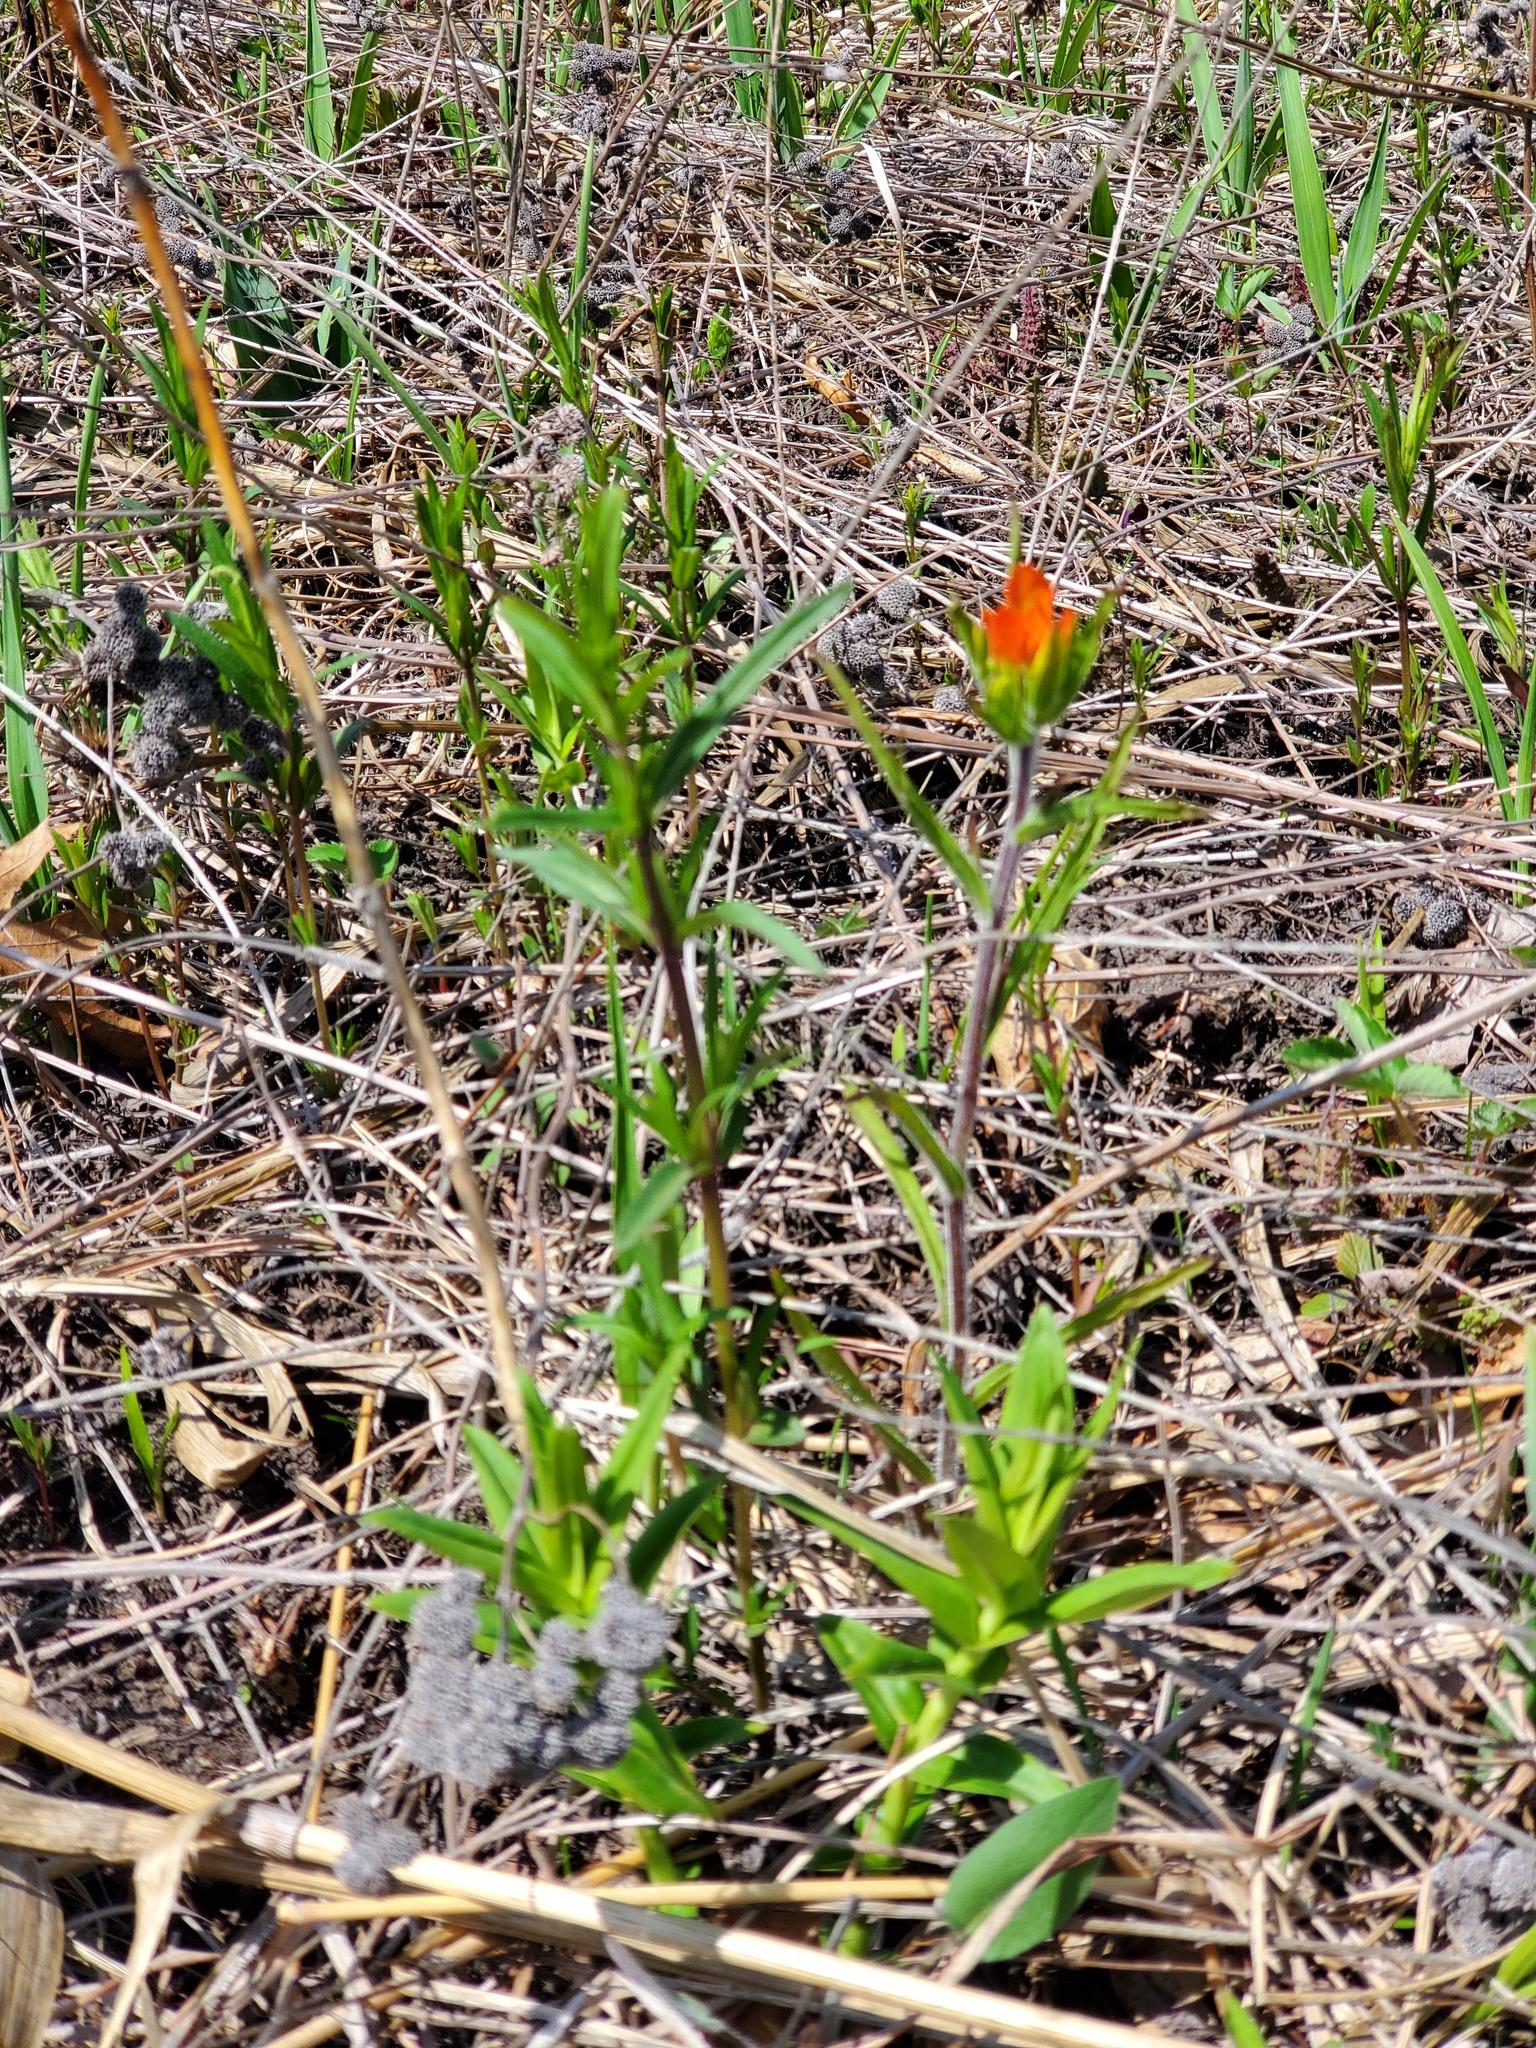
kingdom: Plantae
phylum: Tracheophyta
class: Magnoliopsida
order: Lamiales
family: Orobanchaceae
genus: Castilleja
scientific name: Castilleja coccinea
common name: Scarlet paintbrush
